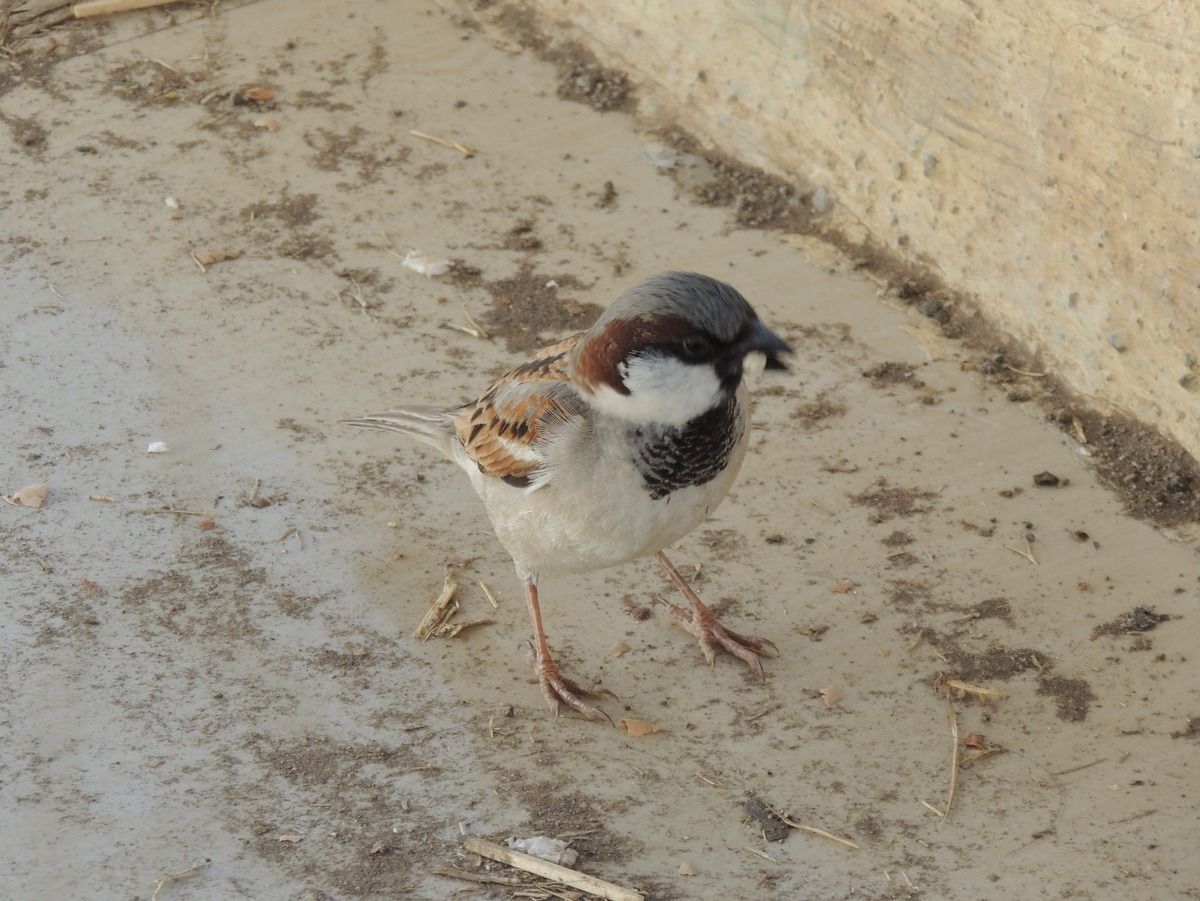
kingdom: Animalia
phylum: Chordata
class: Aves
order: Passeriformes
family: Passeridae
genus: Passer
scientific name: Passer domesticus
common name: House sparrow
